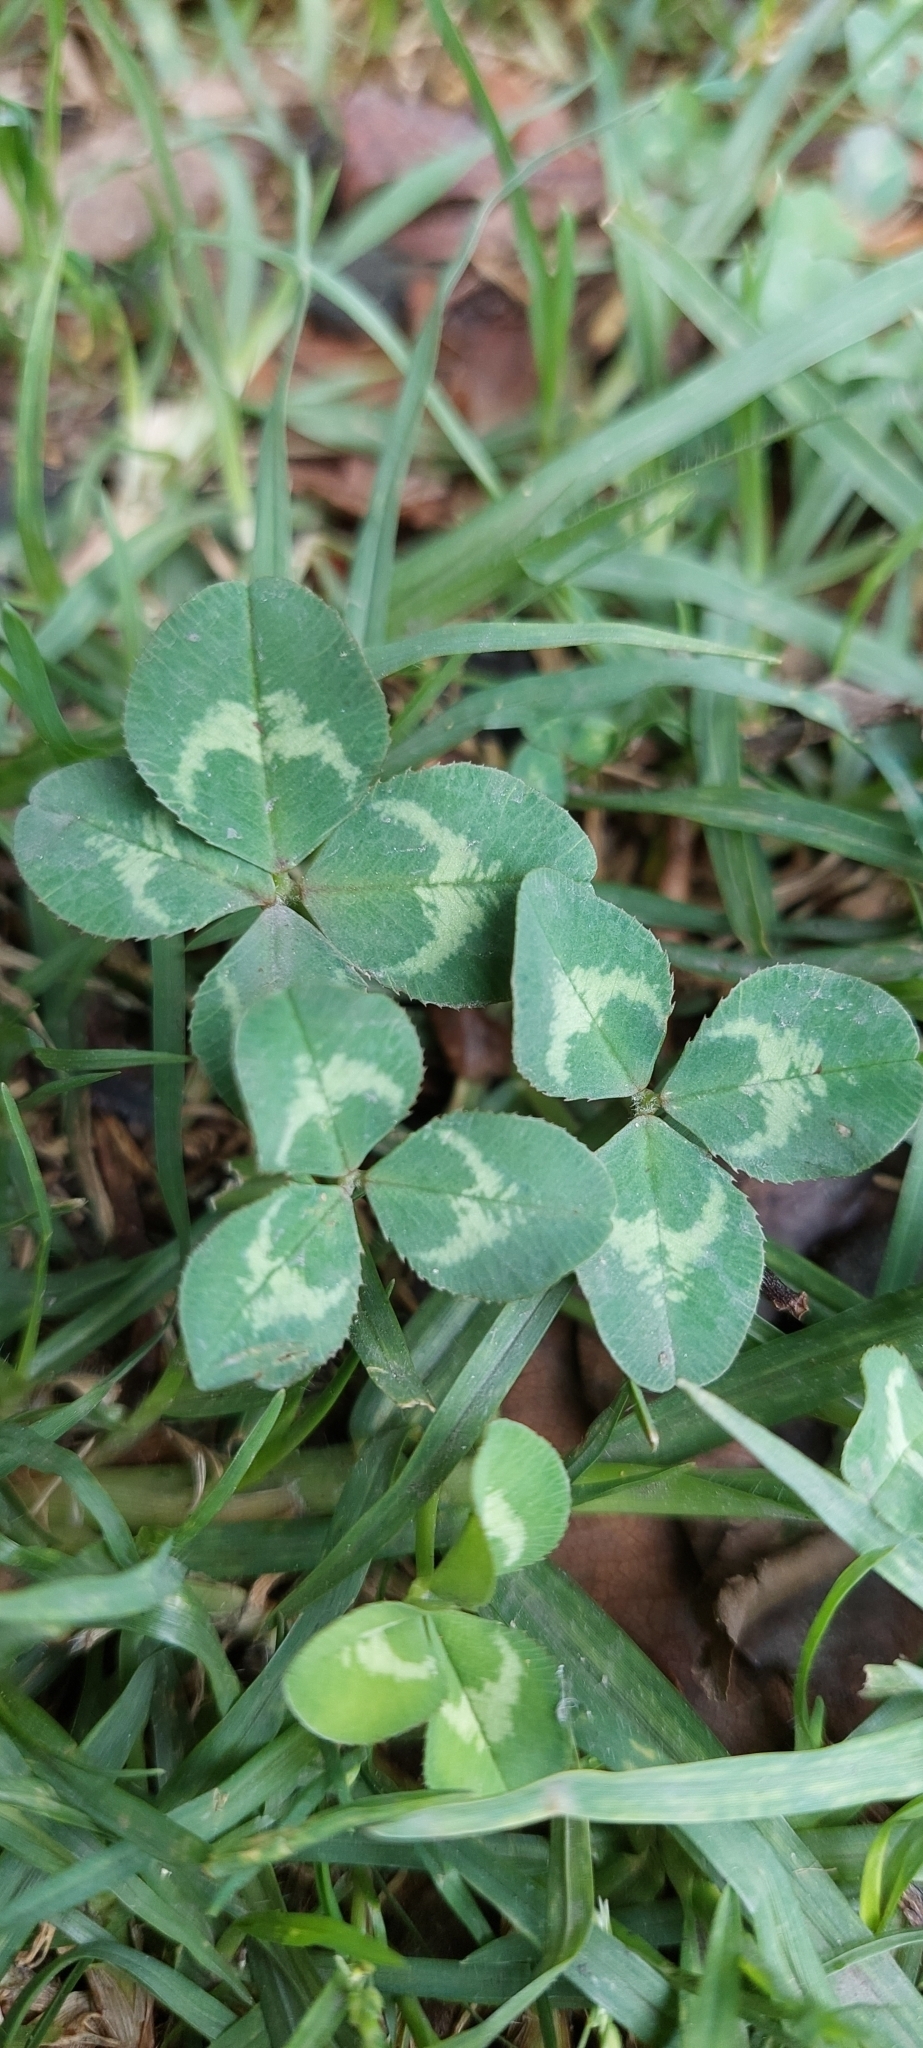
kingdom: Plantae
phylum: Tracheophyta
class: Magnoliopsida
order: Fabales
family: Fabaceae
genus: Trifolium
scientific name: Trifolium repens
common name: White clover
